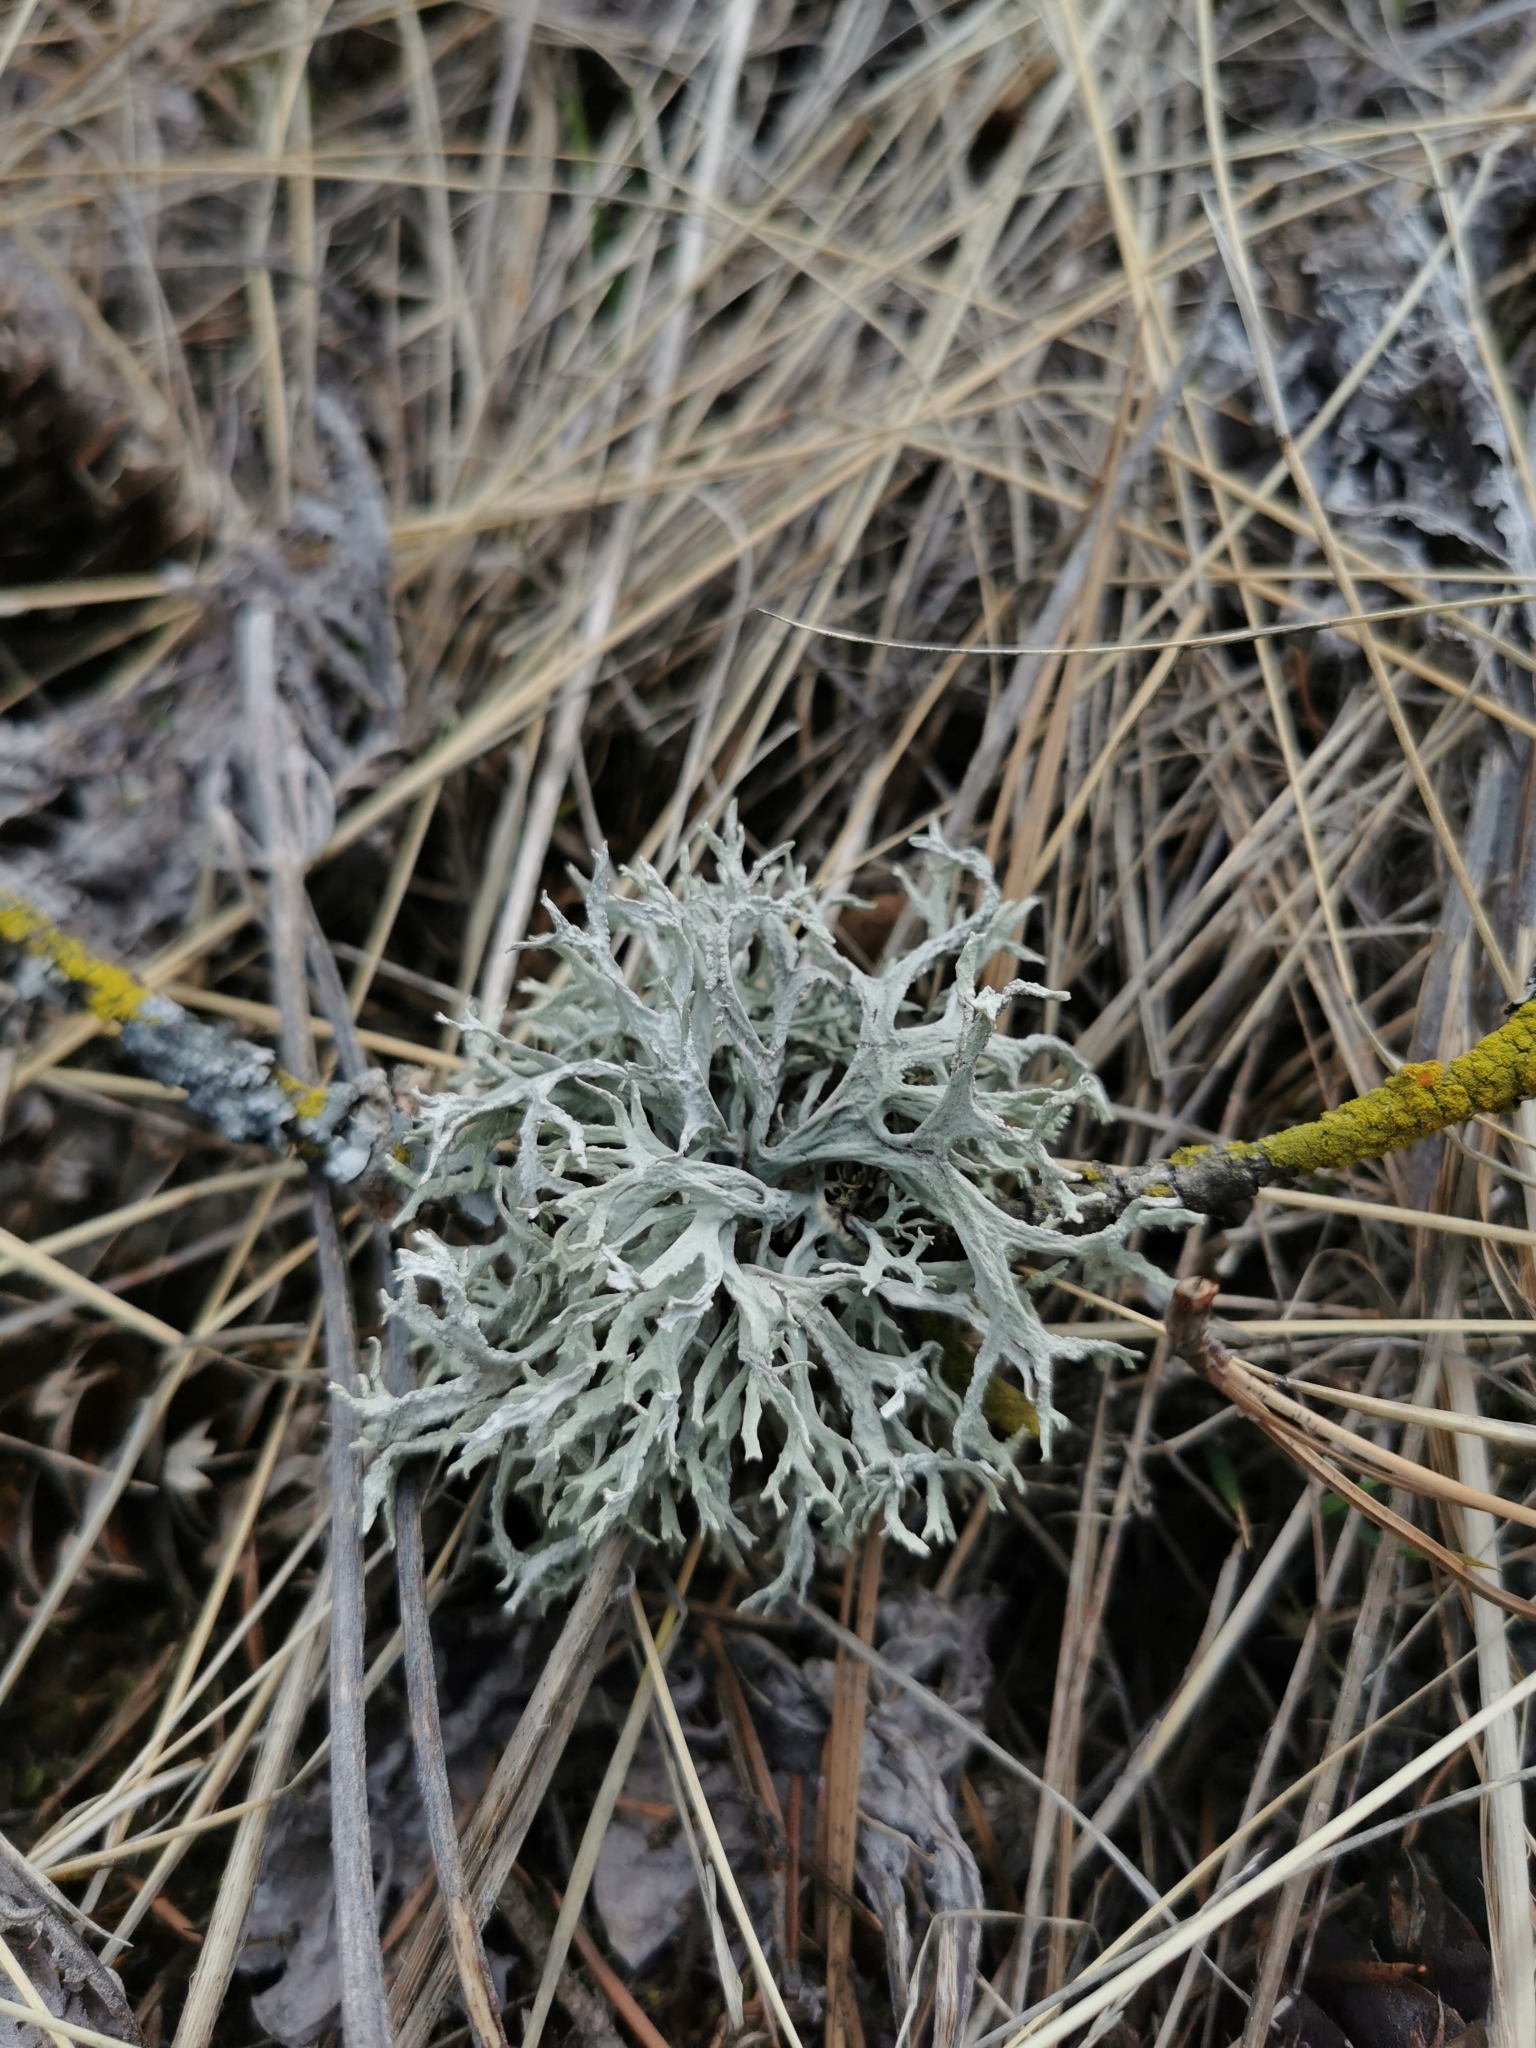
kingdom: Fungi
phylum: Ascomycota
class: Lecanoromycetes
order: Lecanorales
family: Parmeliaceae
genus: Evernia
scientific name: Evernia prunastri
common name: Oak moss
